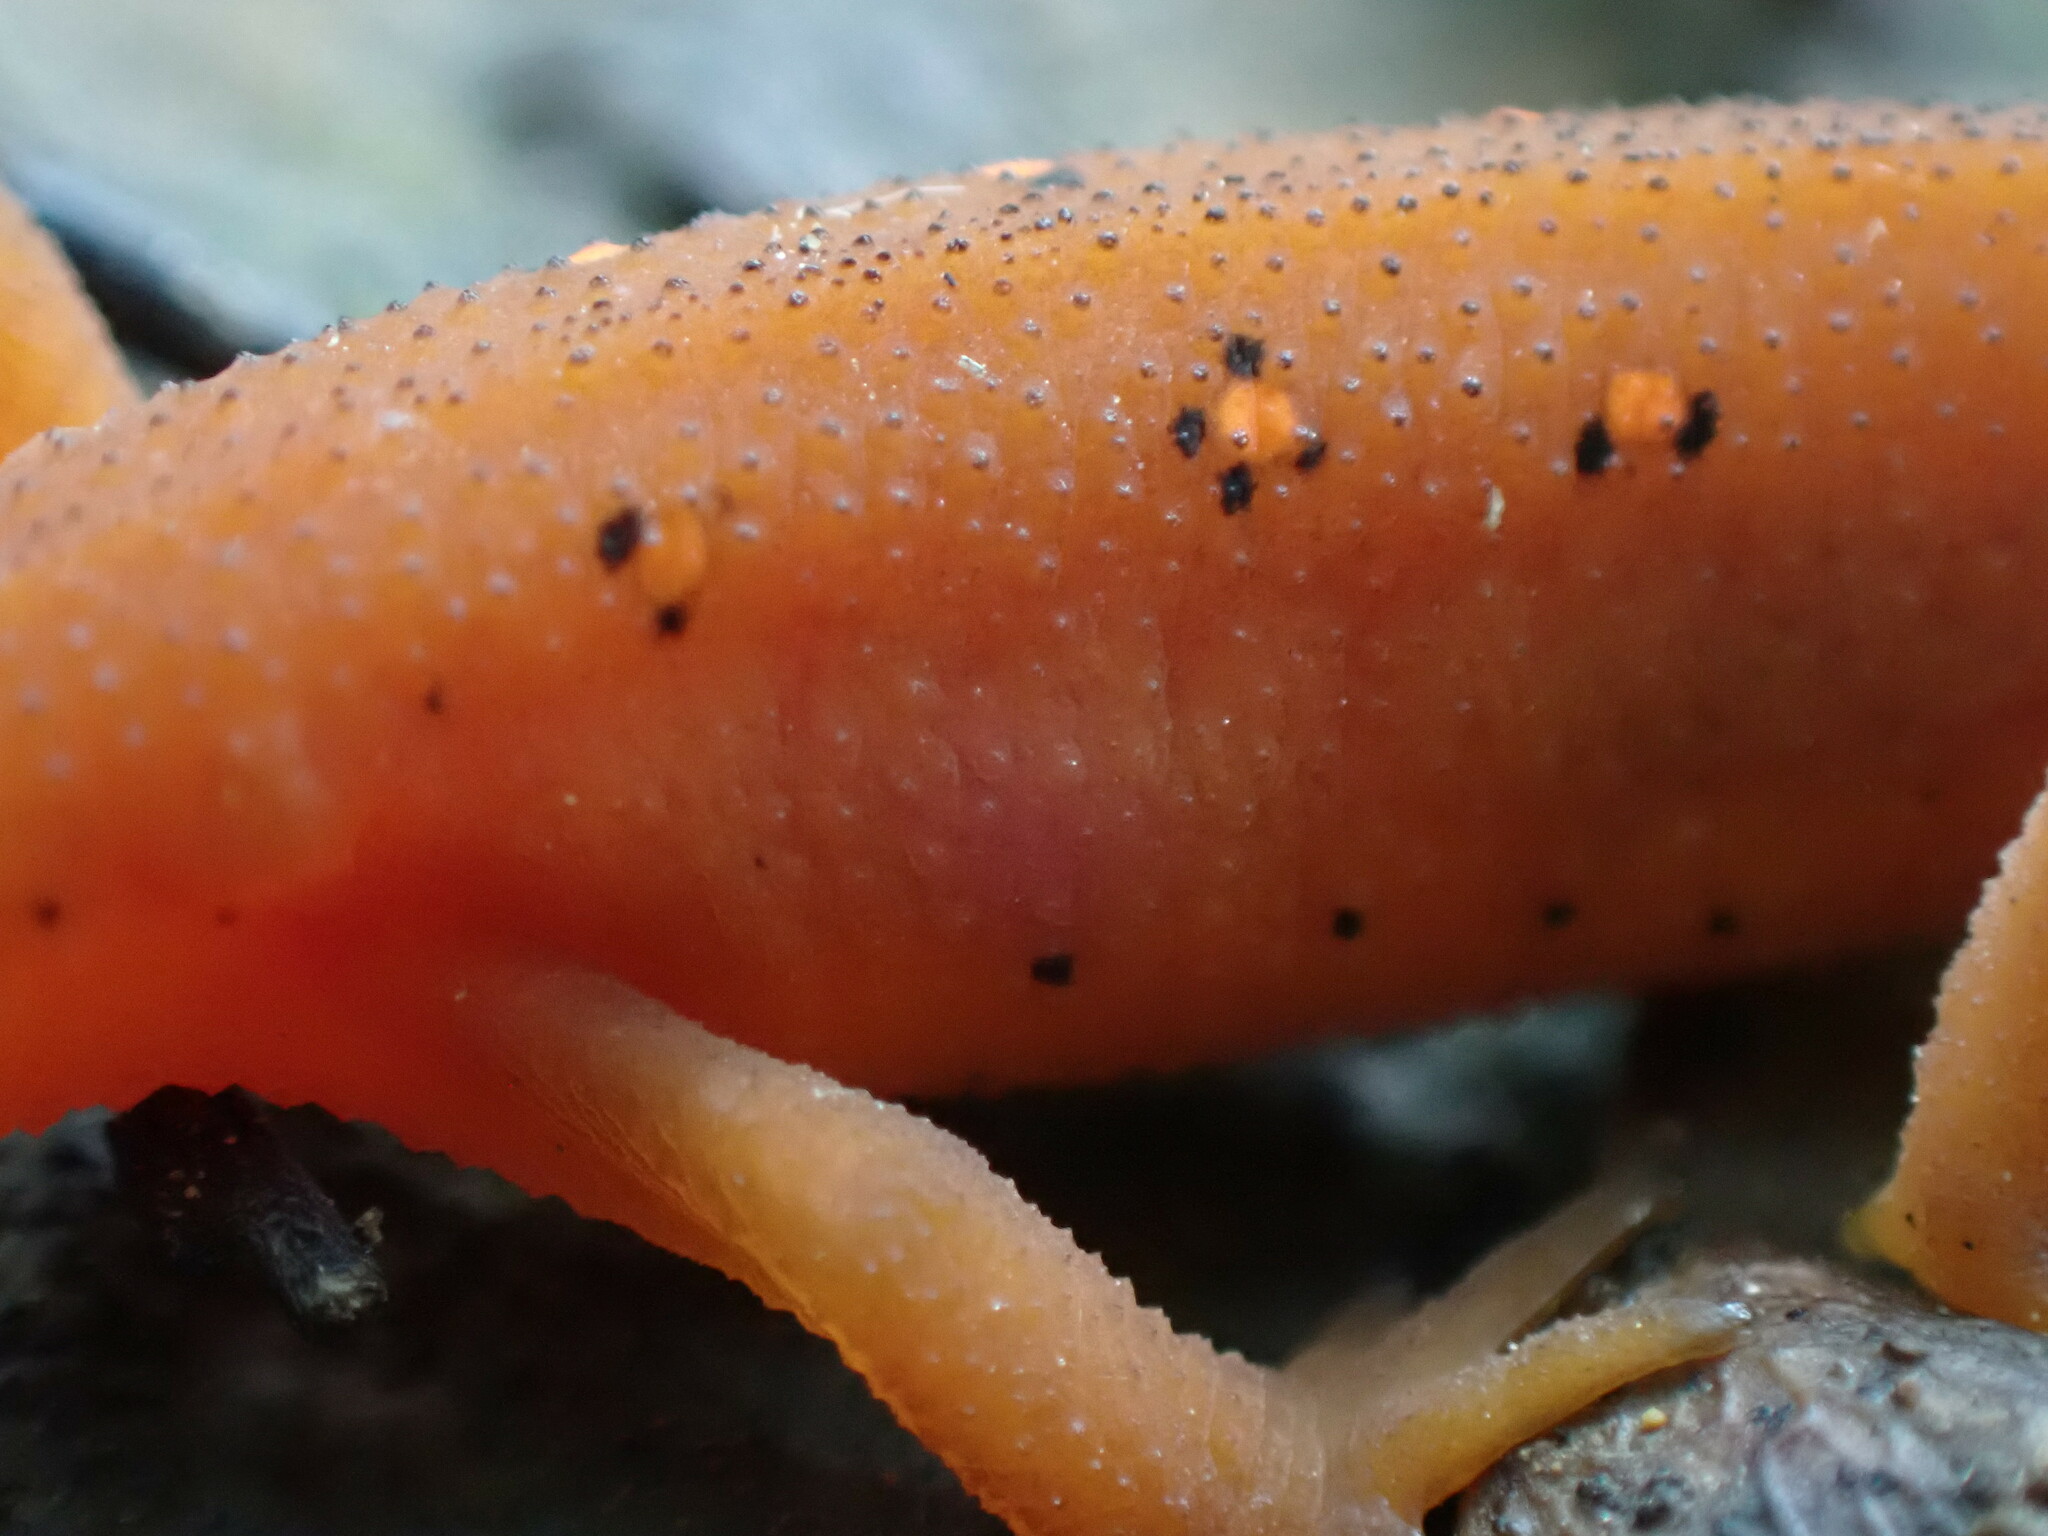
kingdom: Animalia
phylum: Chordata
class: Amphibia
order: Caudata
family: Salamandridae
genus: Notophthalmus
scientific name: Notophthalmus viridescens
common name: Eastern newt
